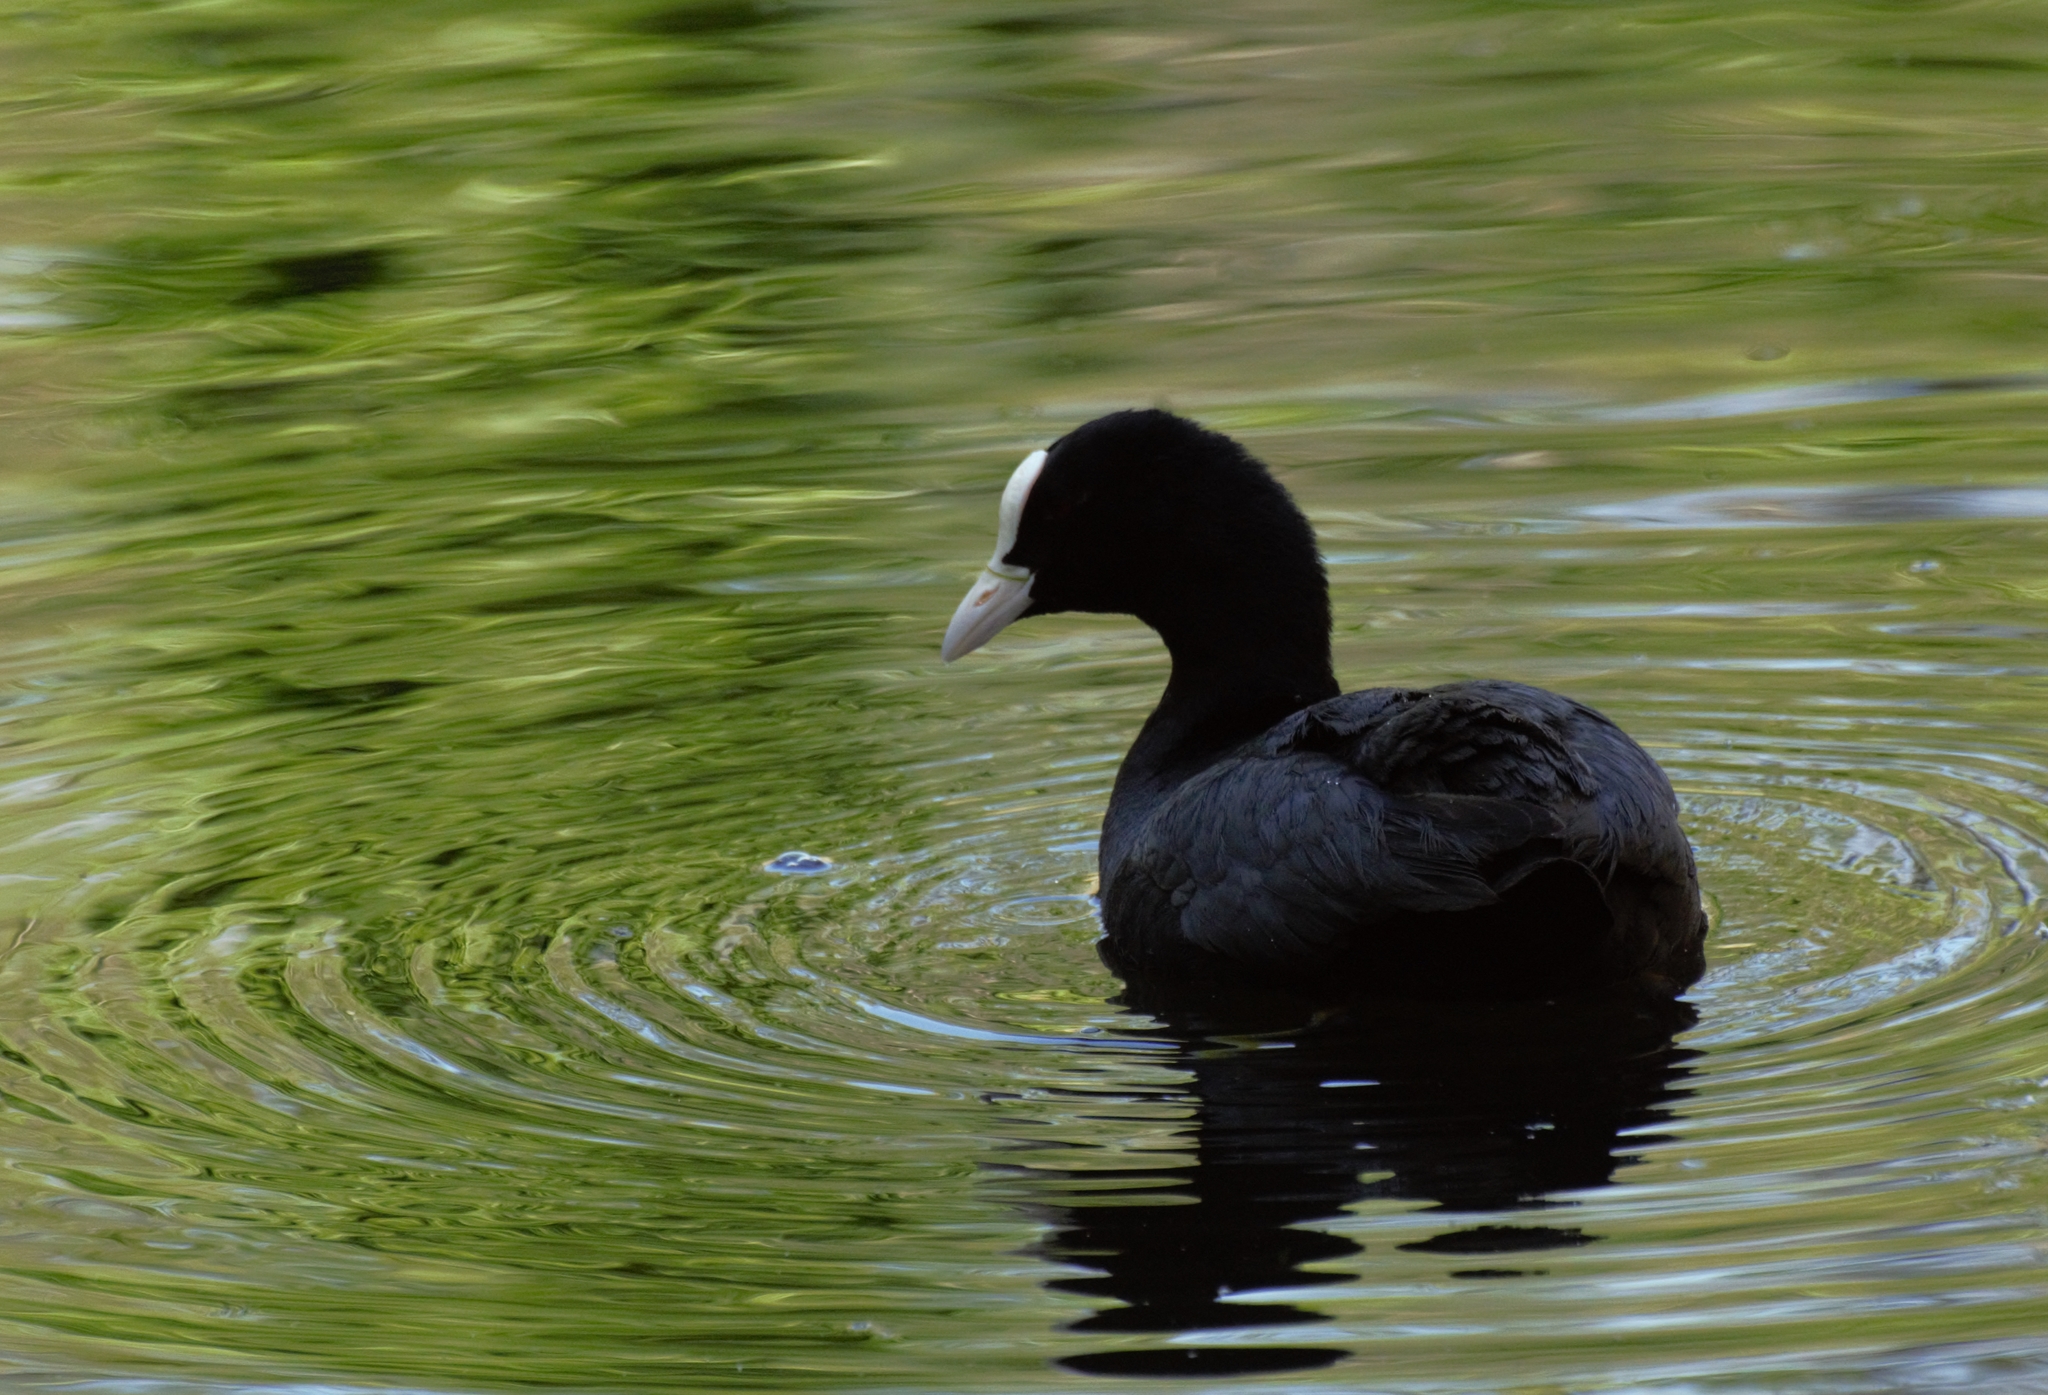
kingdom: Animalia
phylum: Chordata
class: Aves
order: Gruiformes
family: Rallidae
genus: Fulica
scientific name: Fulica atra
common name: Eurasian coot
